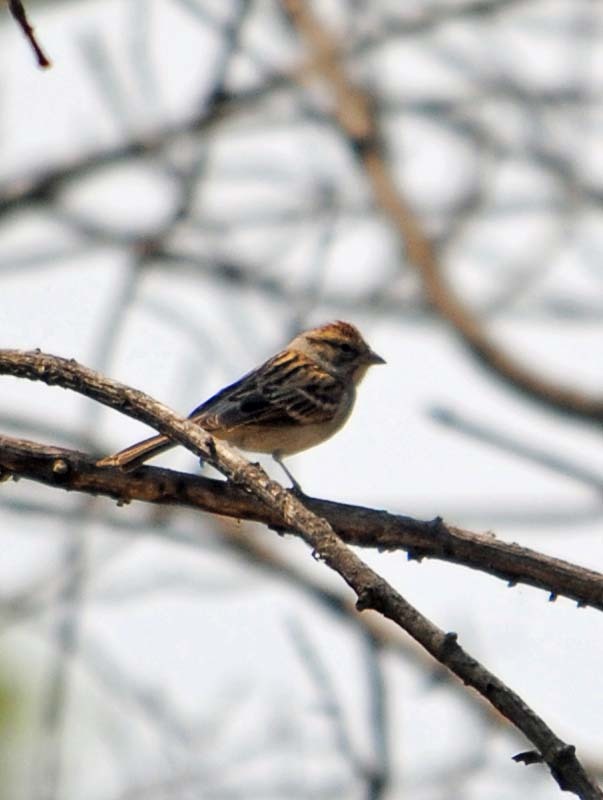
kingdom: Animalia
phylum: Chordata
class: Aves
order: Passeriformes
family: Passerellidae
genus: Spizella
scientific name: Spizella passerina
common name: Chipping sparrow
